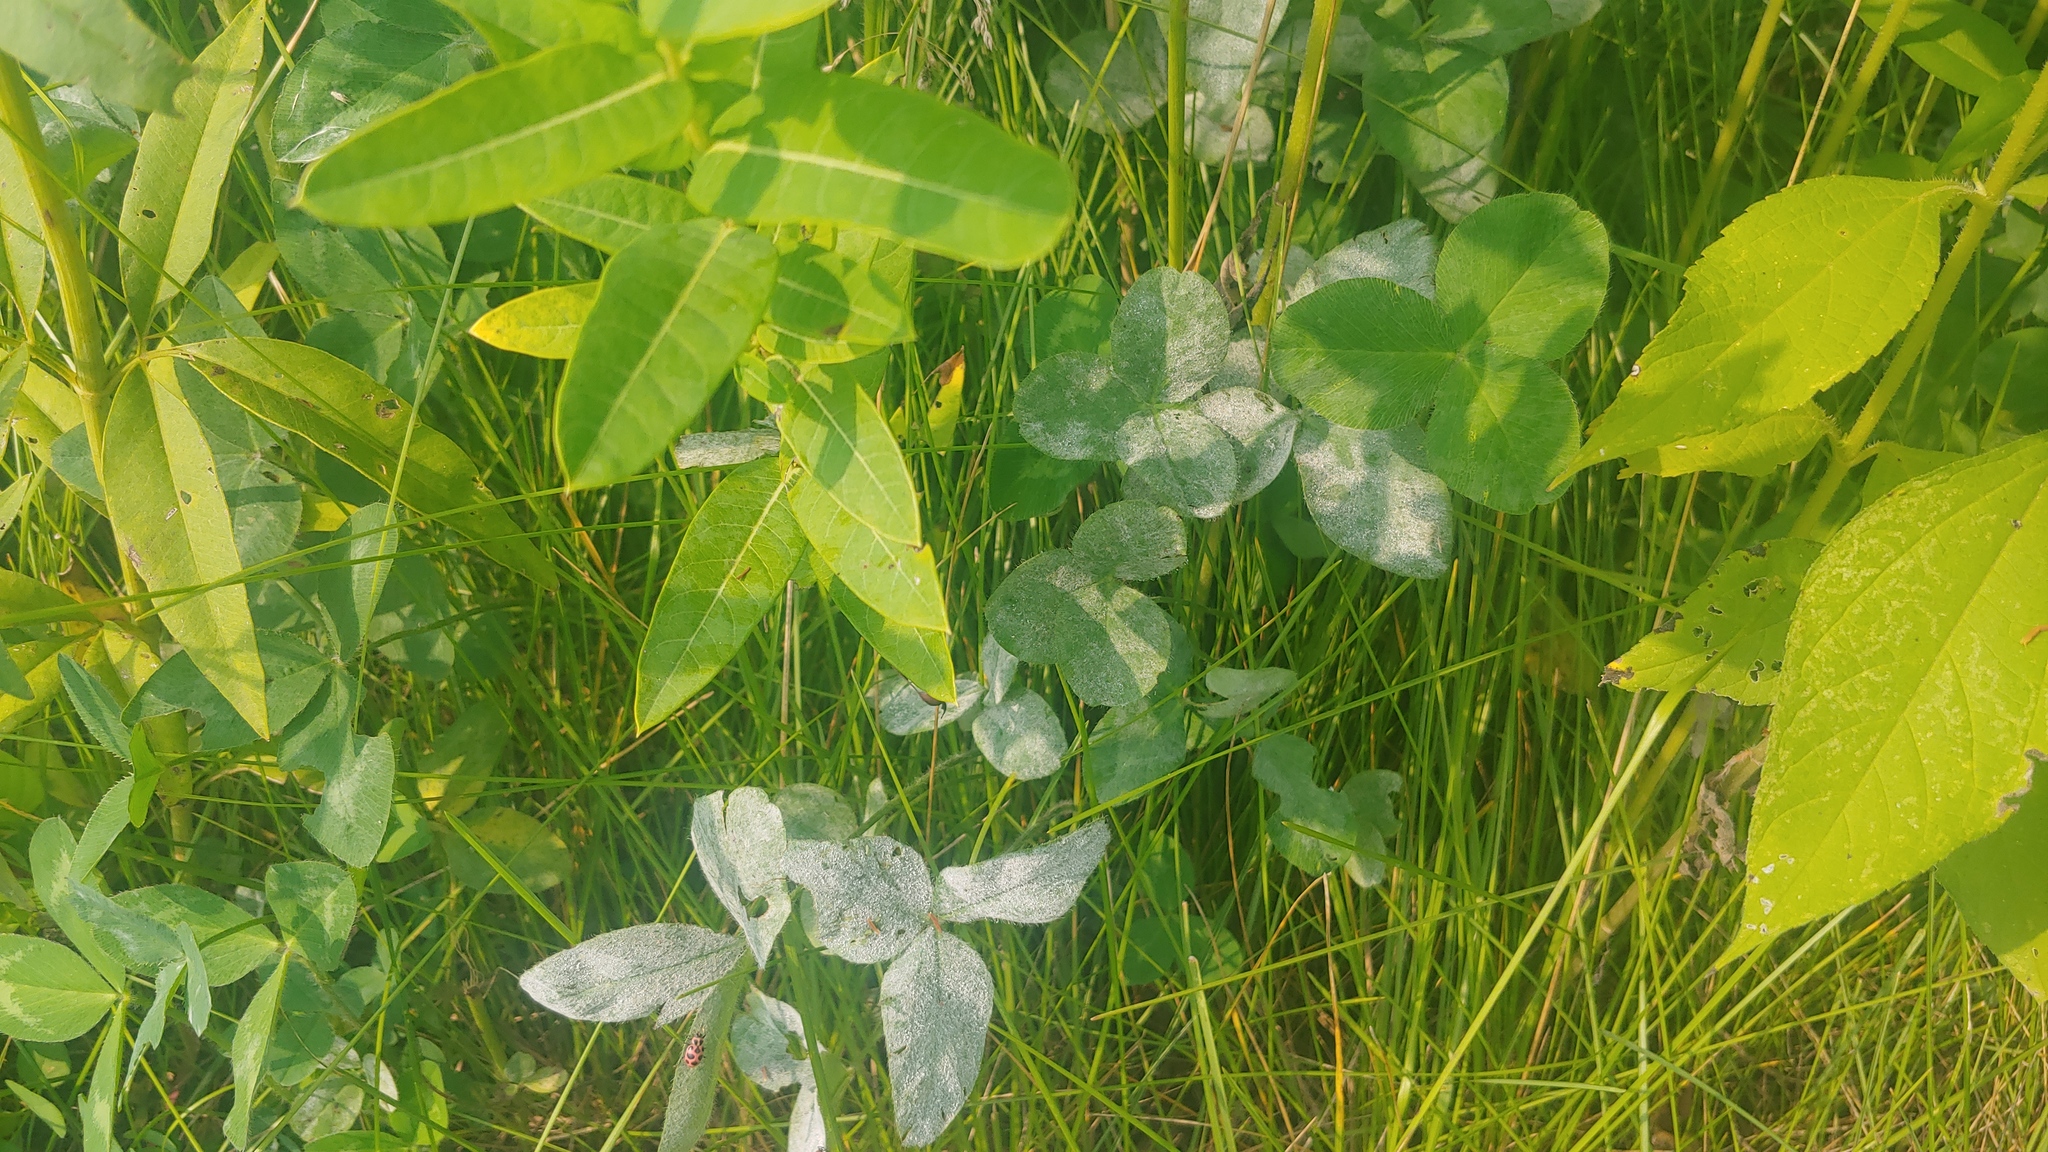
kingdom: Fungi
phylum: Ascomycota
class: Leotiomycetes
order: Helotiales
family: Erysiphaceae
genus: Erysiphe
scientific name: Erysiphe trifoliorum
